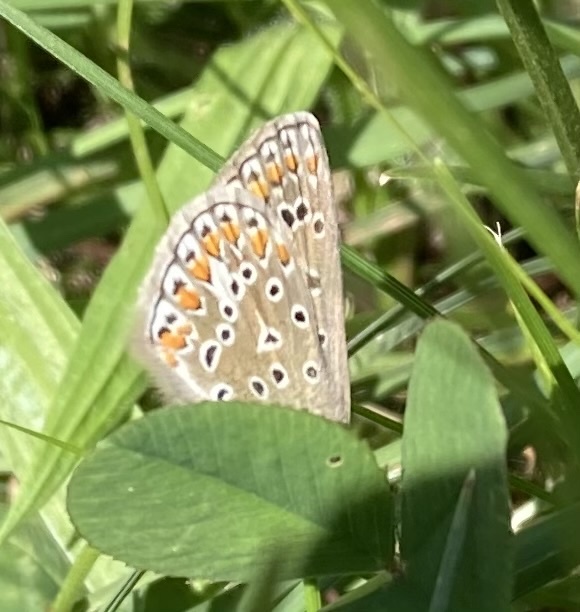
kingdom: Animalia
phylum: Arthropoda
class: Insecta
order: Lepidoptera
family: Lycaenidae
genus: Polyommatus
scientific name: Polyommatus icarus
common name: Common blue
